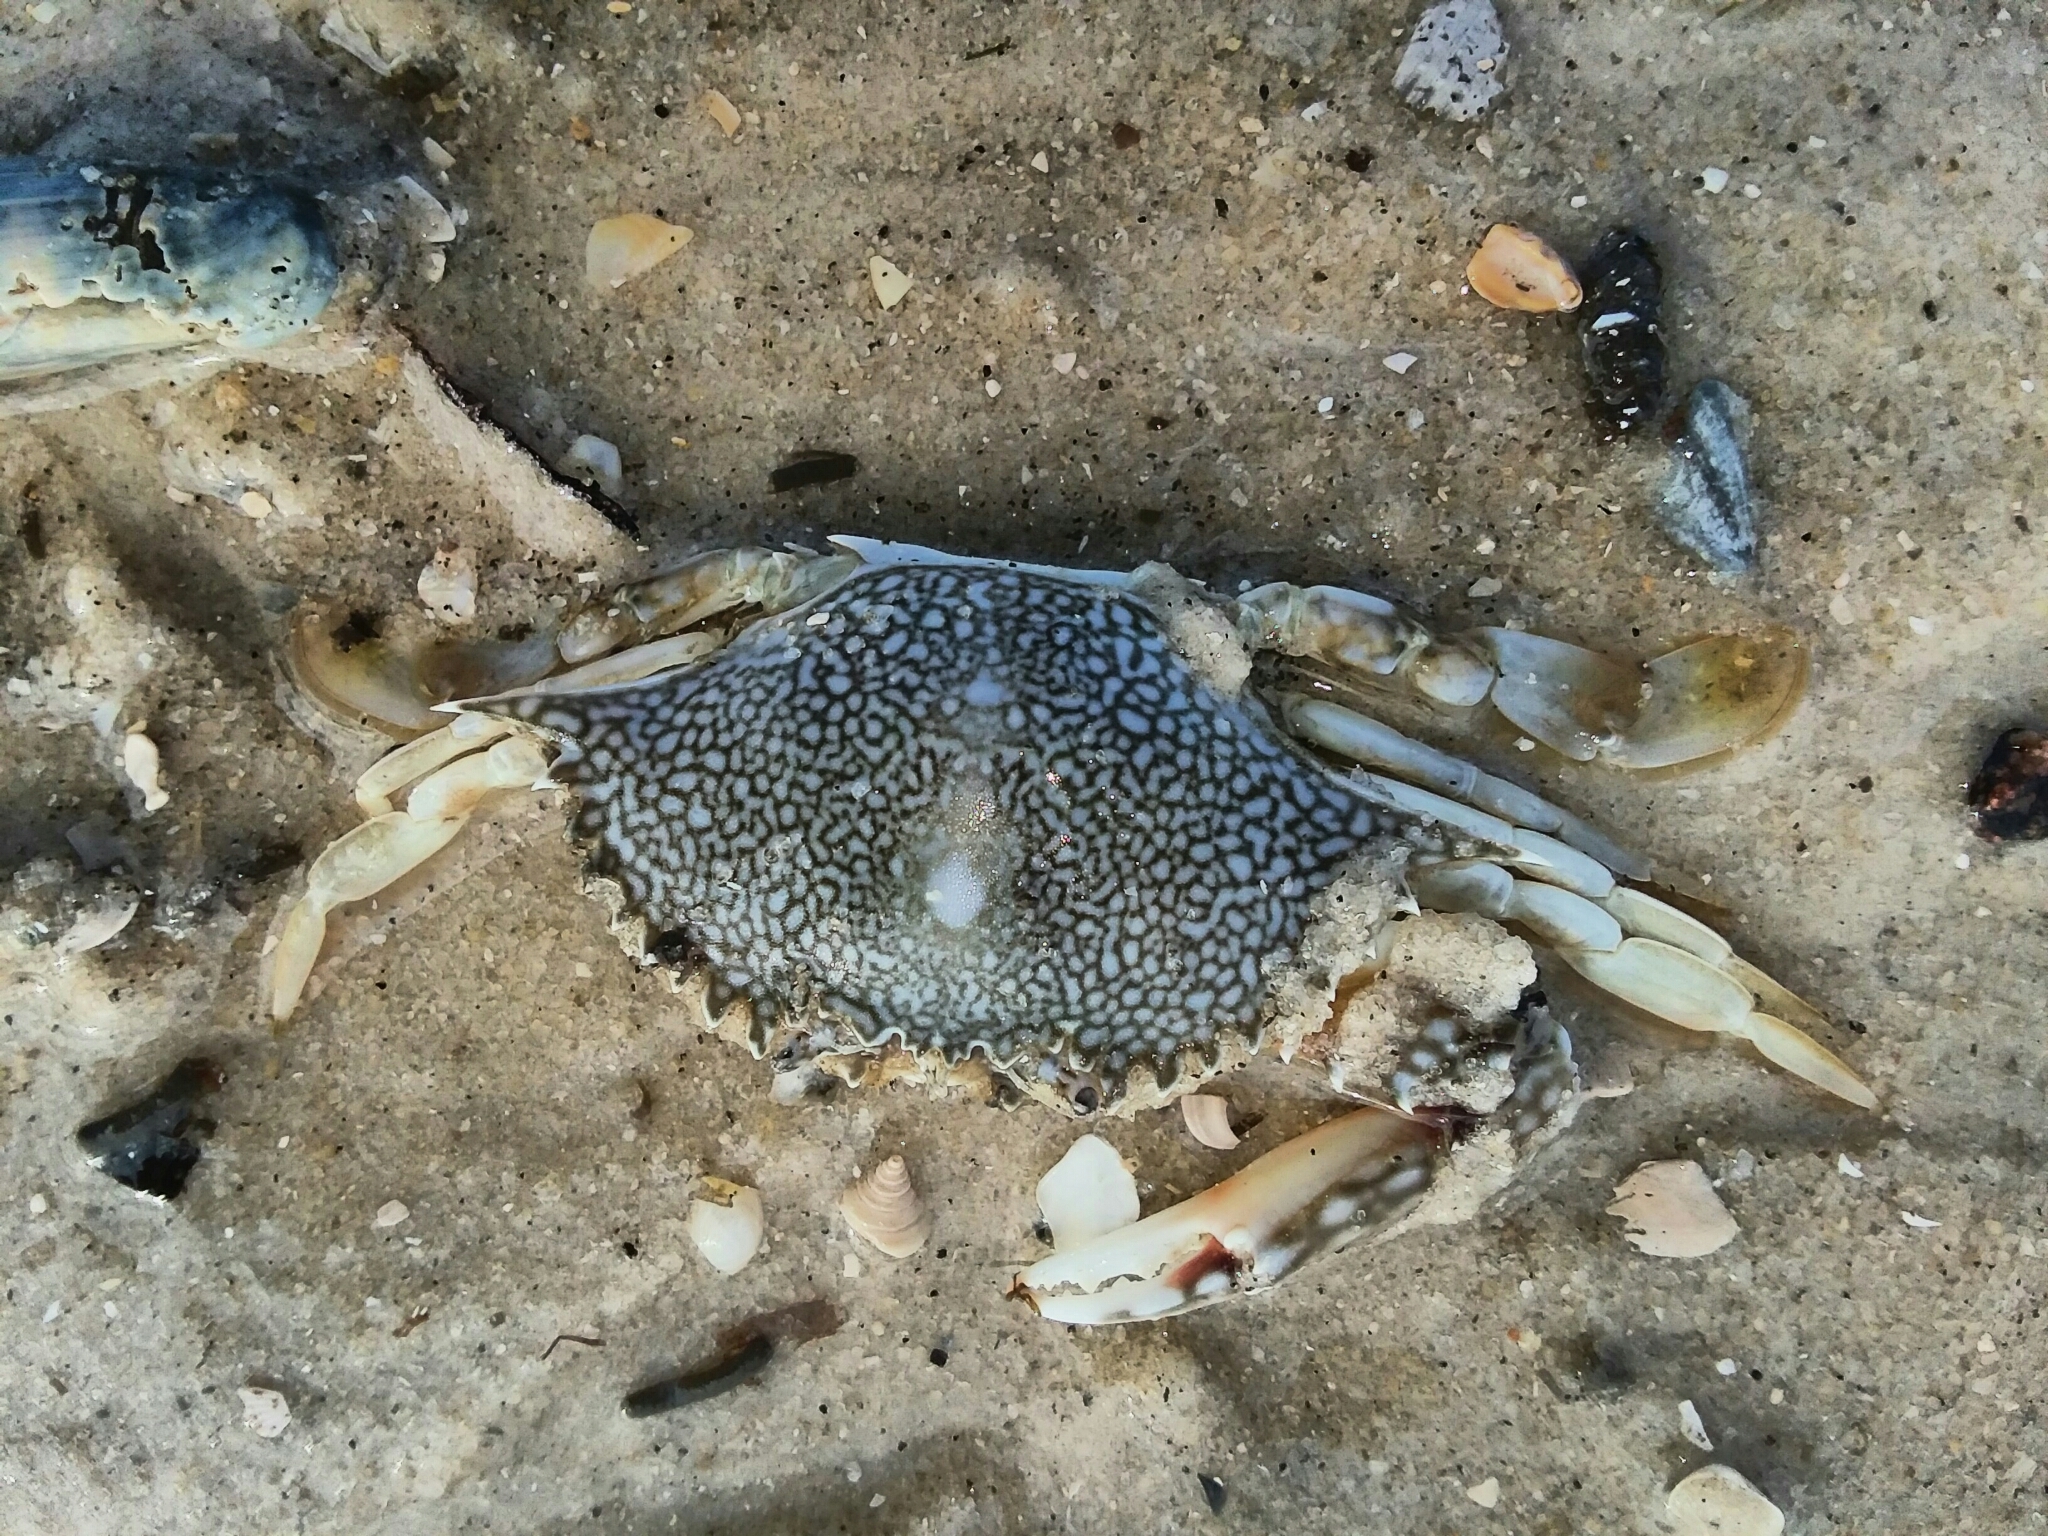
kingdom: Animalia
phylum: Arthropoda
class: Malacostraca
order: Decapoda
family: Portunidae
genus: Arenaeus
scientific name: Arenaeus cribrarius
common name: Speckled crab
